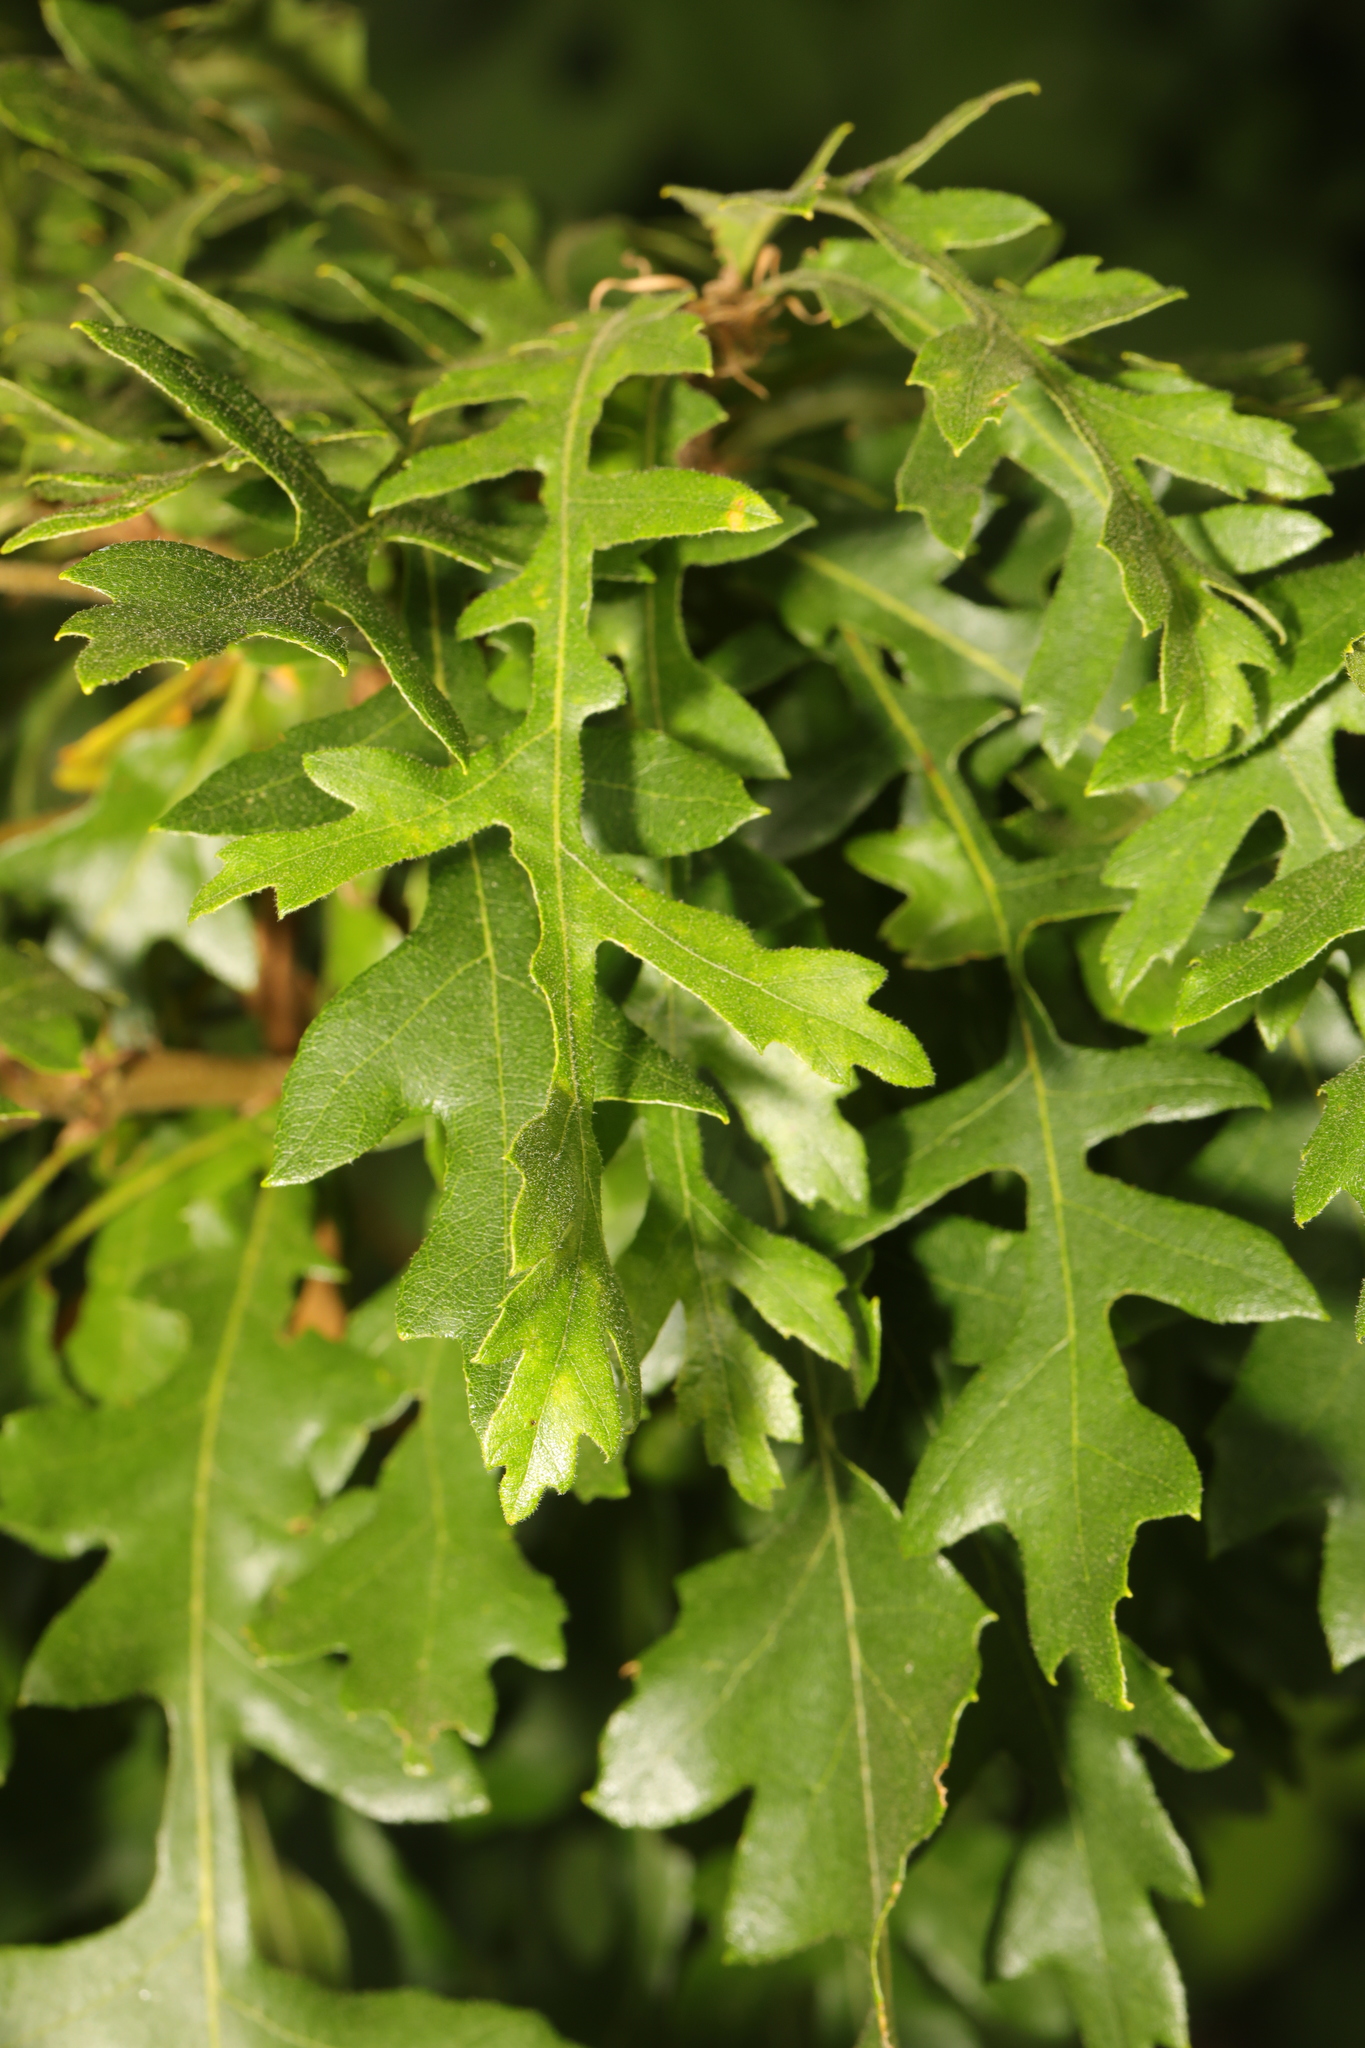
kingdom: Plantae
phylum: Tracheophyta
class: Magnoliopsida
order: Fagales
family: Fagaceae
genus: Quercus
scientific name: Quercus cerris
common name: Turkey oak
